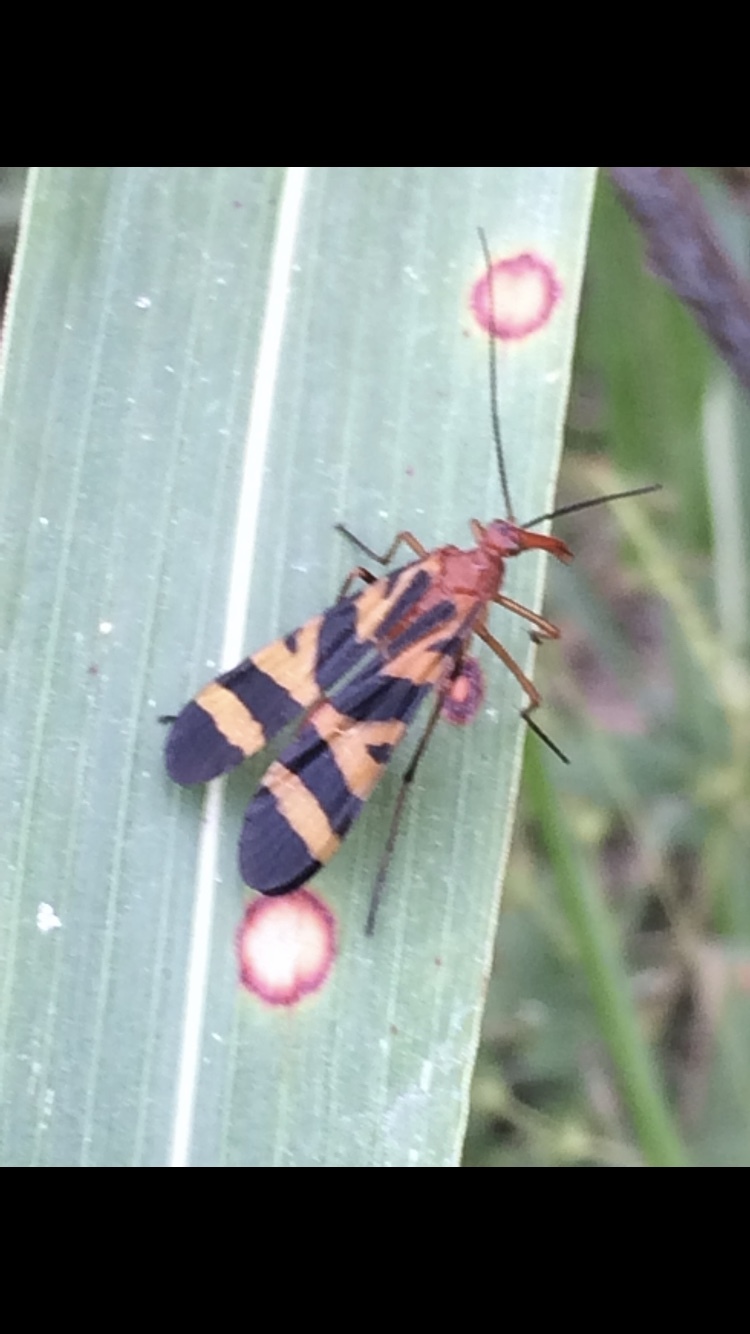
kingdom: Animalia
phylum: Arthropoda
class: Insecta
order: Mecoptera
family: Panorpidae
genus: Panorpa
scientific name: Panorpa nuptialis
